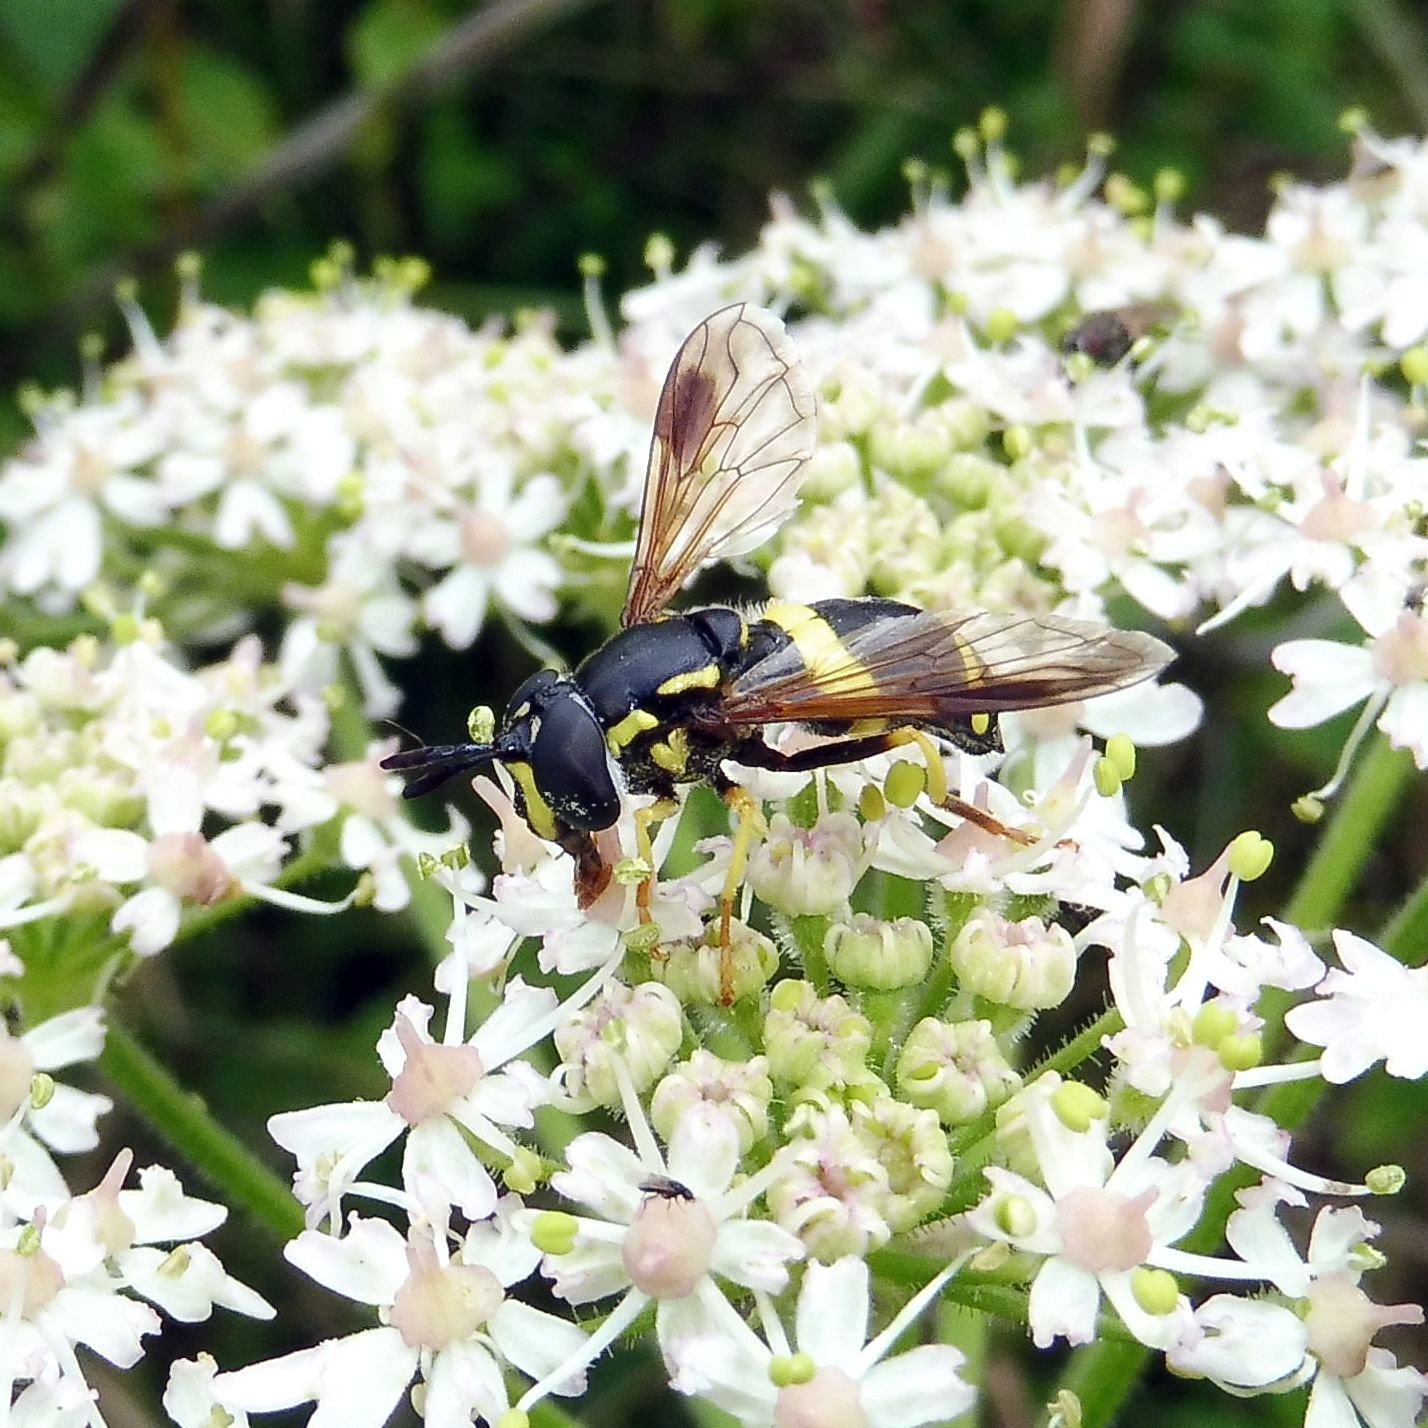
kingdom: Animalia
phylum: Arthropoda
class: Insecta
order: Diptera
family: Syrphidae
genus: Chrysotoxum
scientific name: Chrysotoxum bicincta
